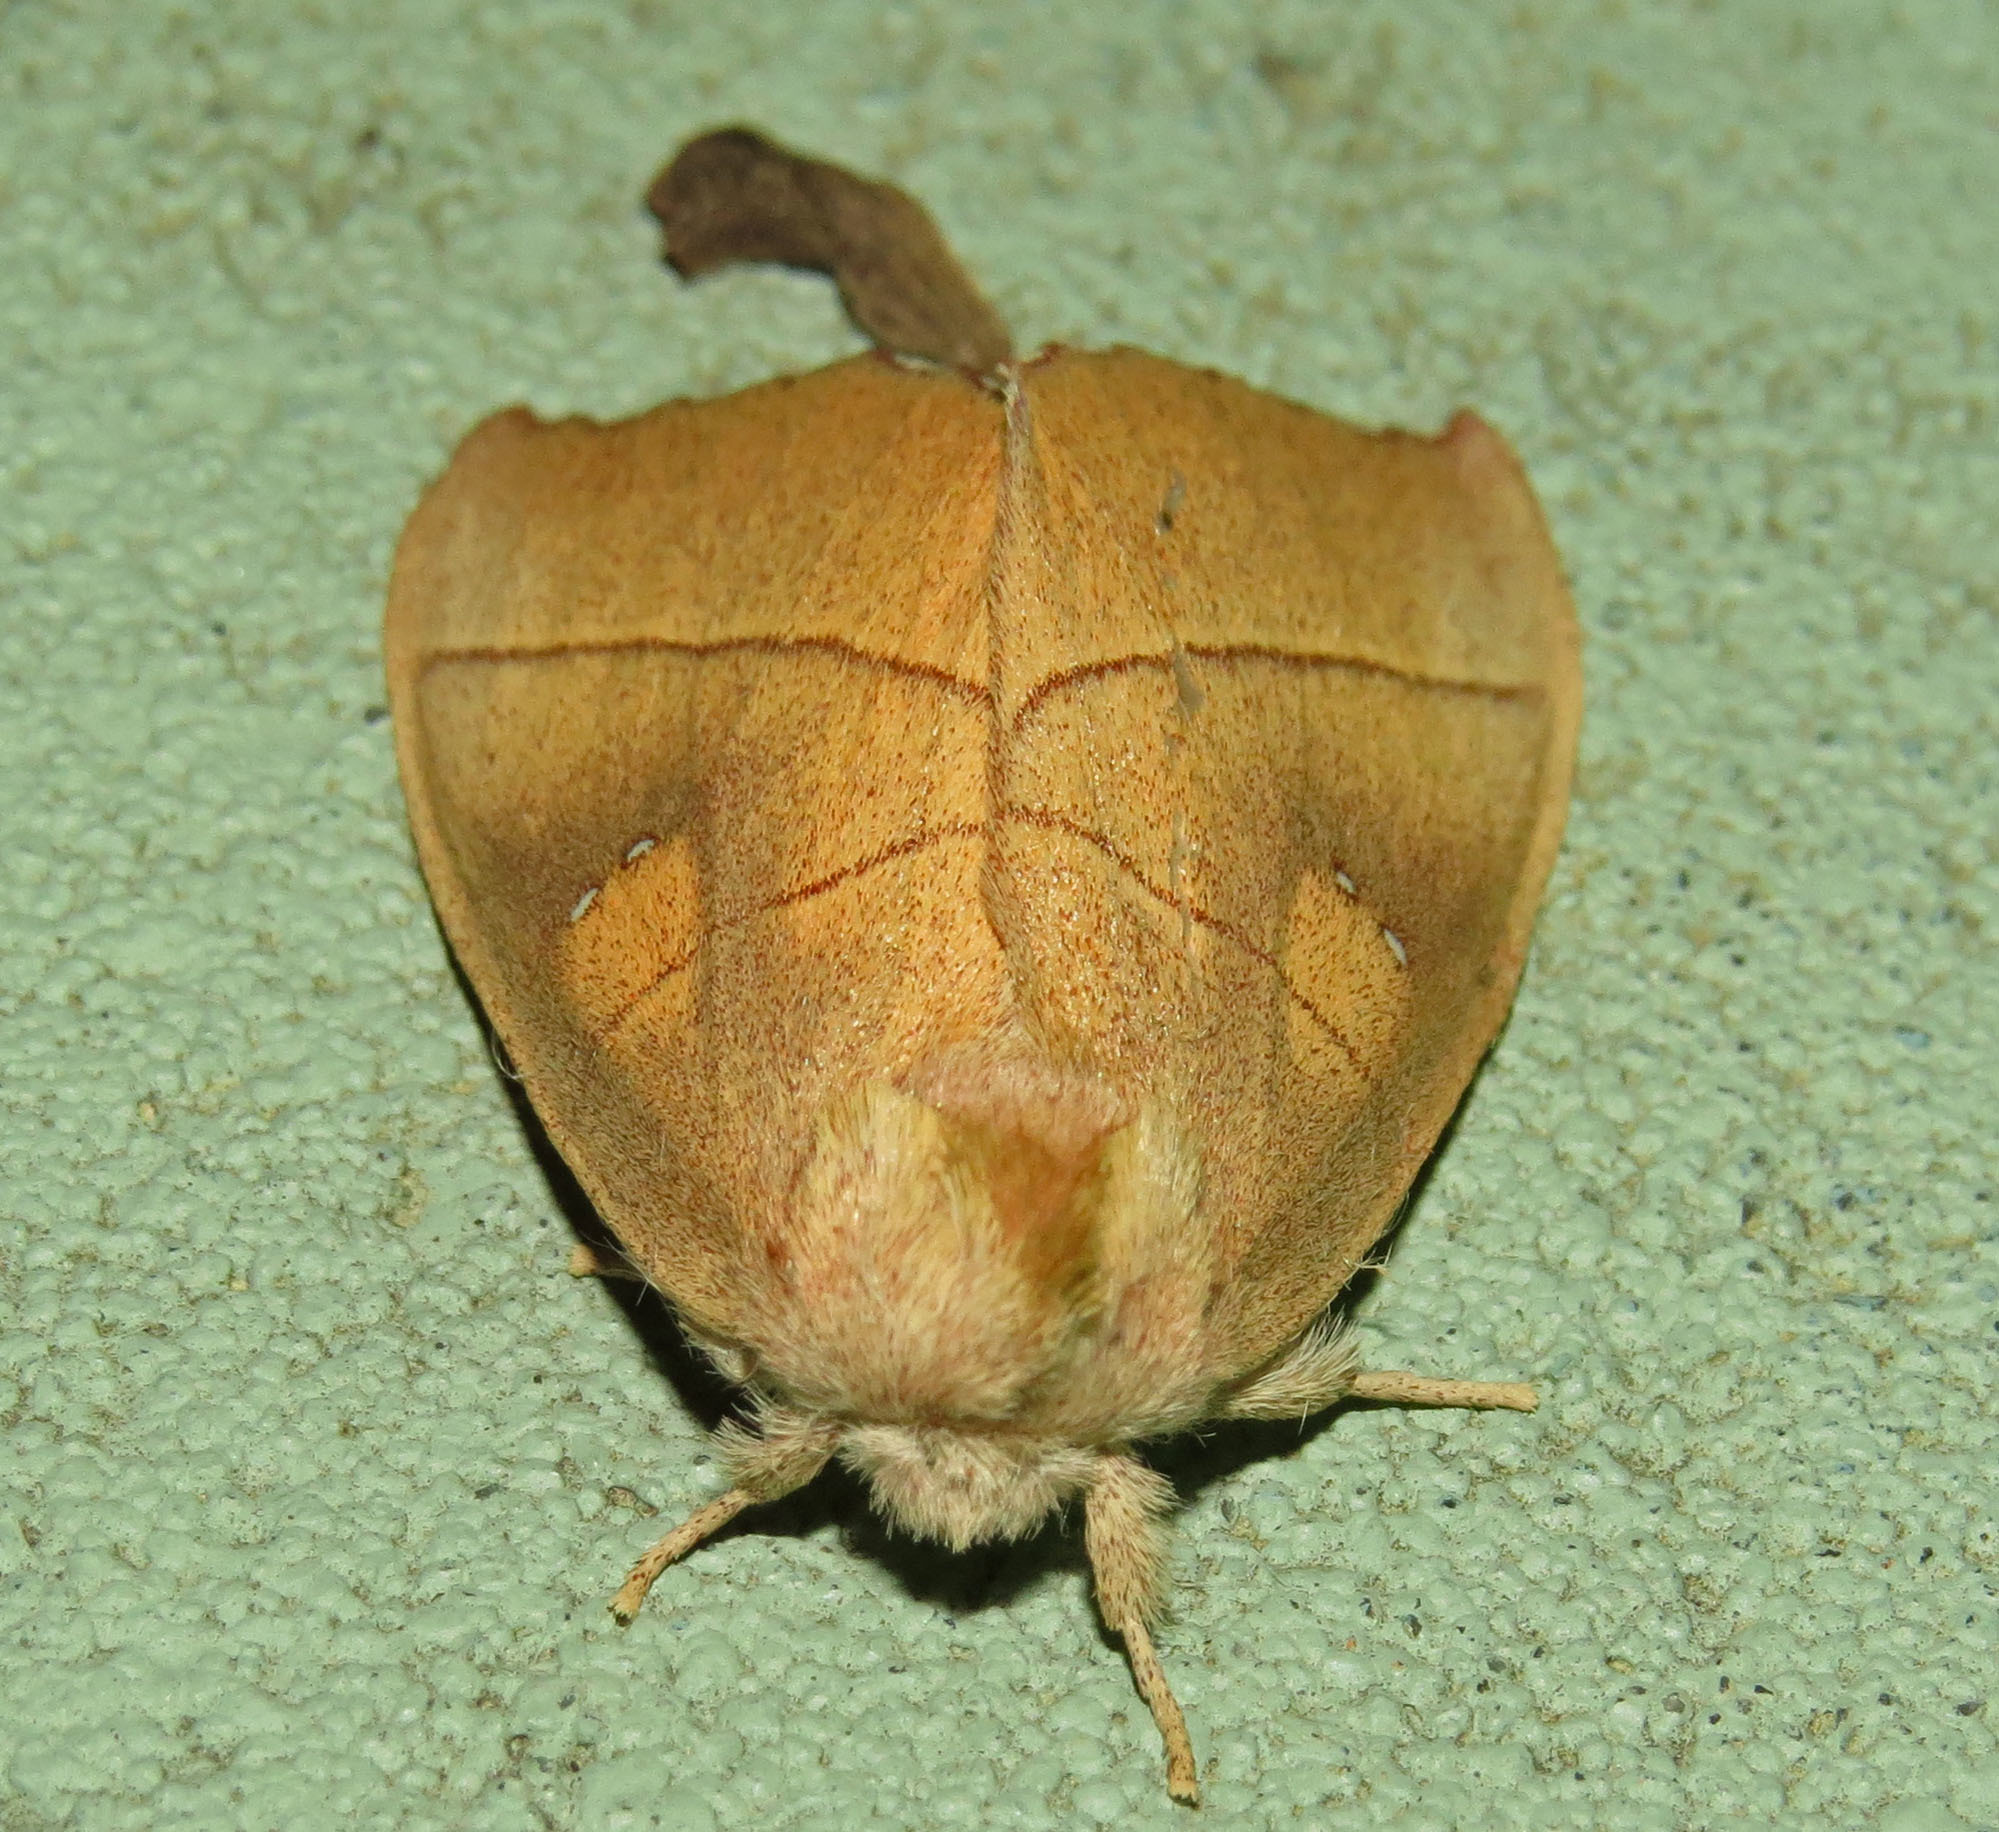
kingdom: Animalia
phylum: Arthropoda
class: Insecta
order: Lepidoptera
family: Notodontidae
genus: Nadata
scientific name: Nadata gibbosa
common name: White-dotted prominent
